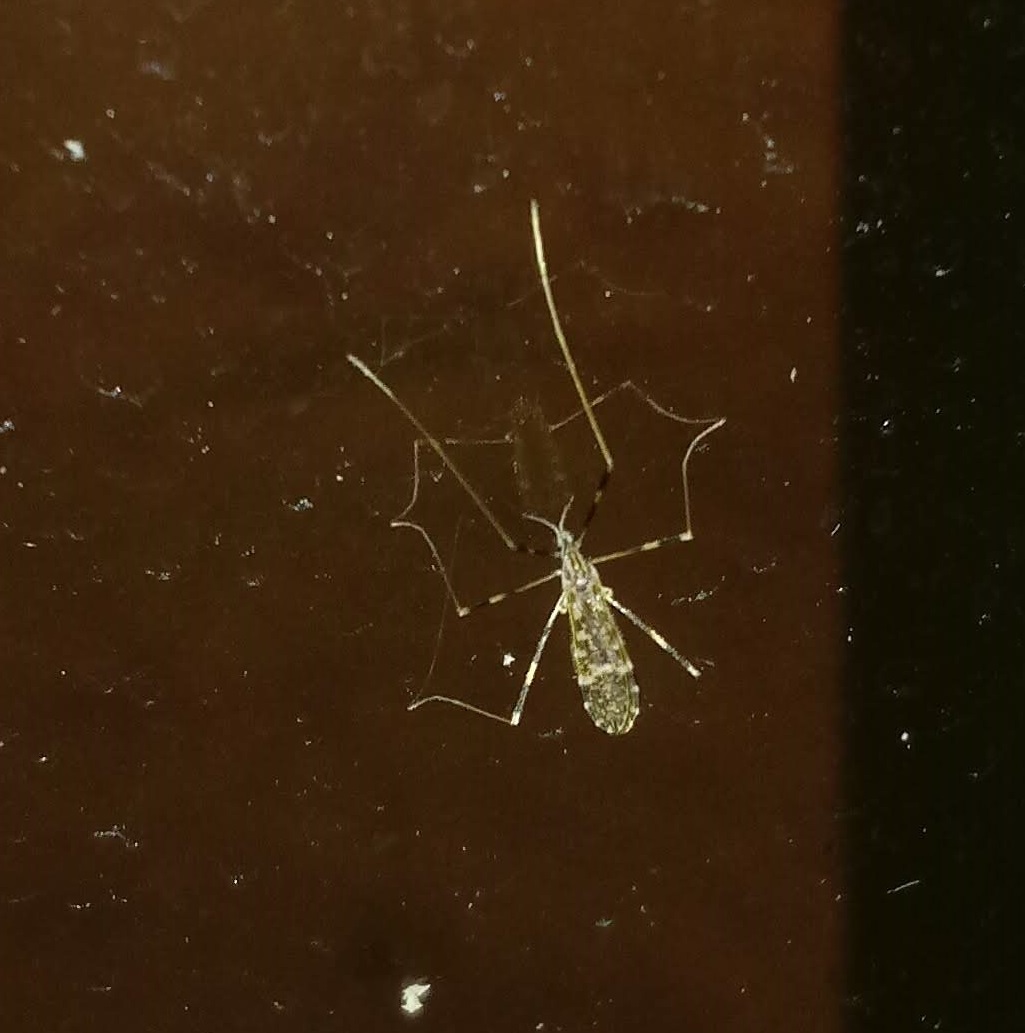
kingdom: Animalia
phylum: Arthropoda
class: Insecta
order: Diptera
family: Limoniidae
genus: Erioptera
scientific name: Erioptera caliptera
